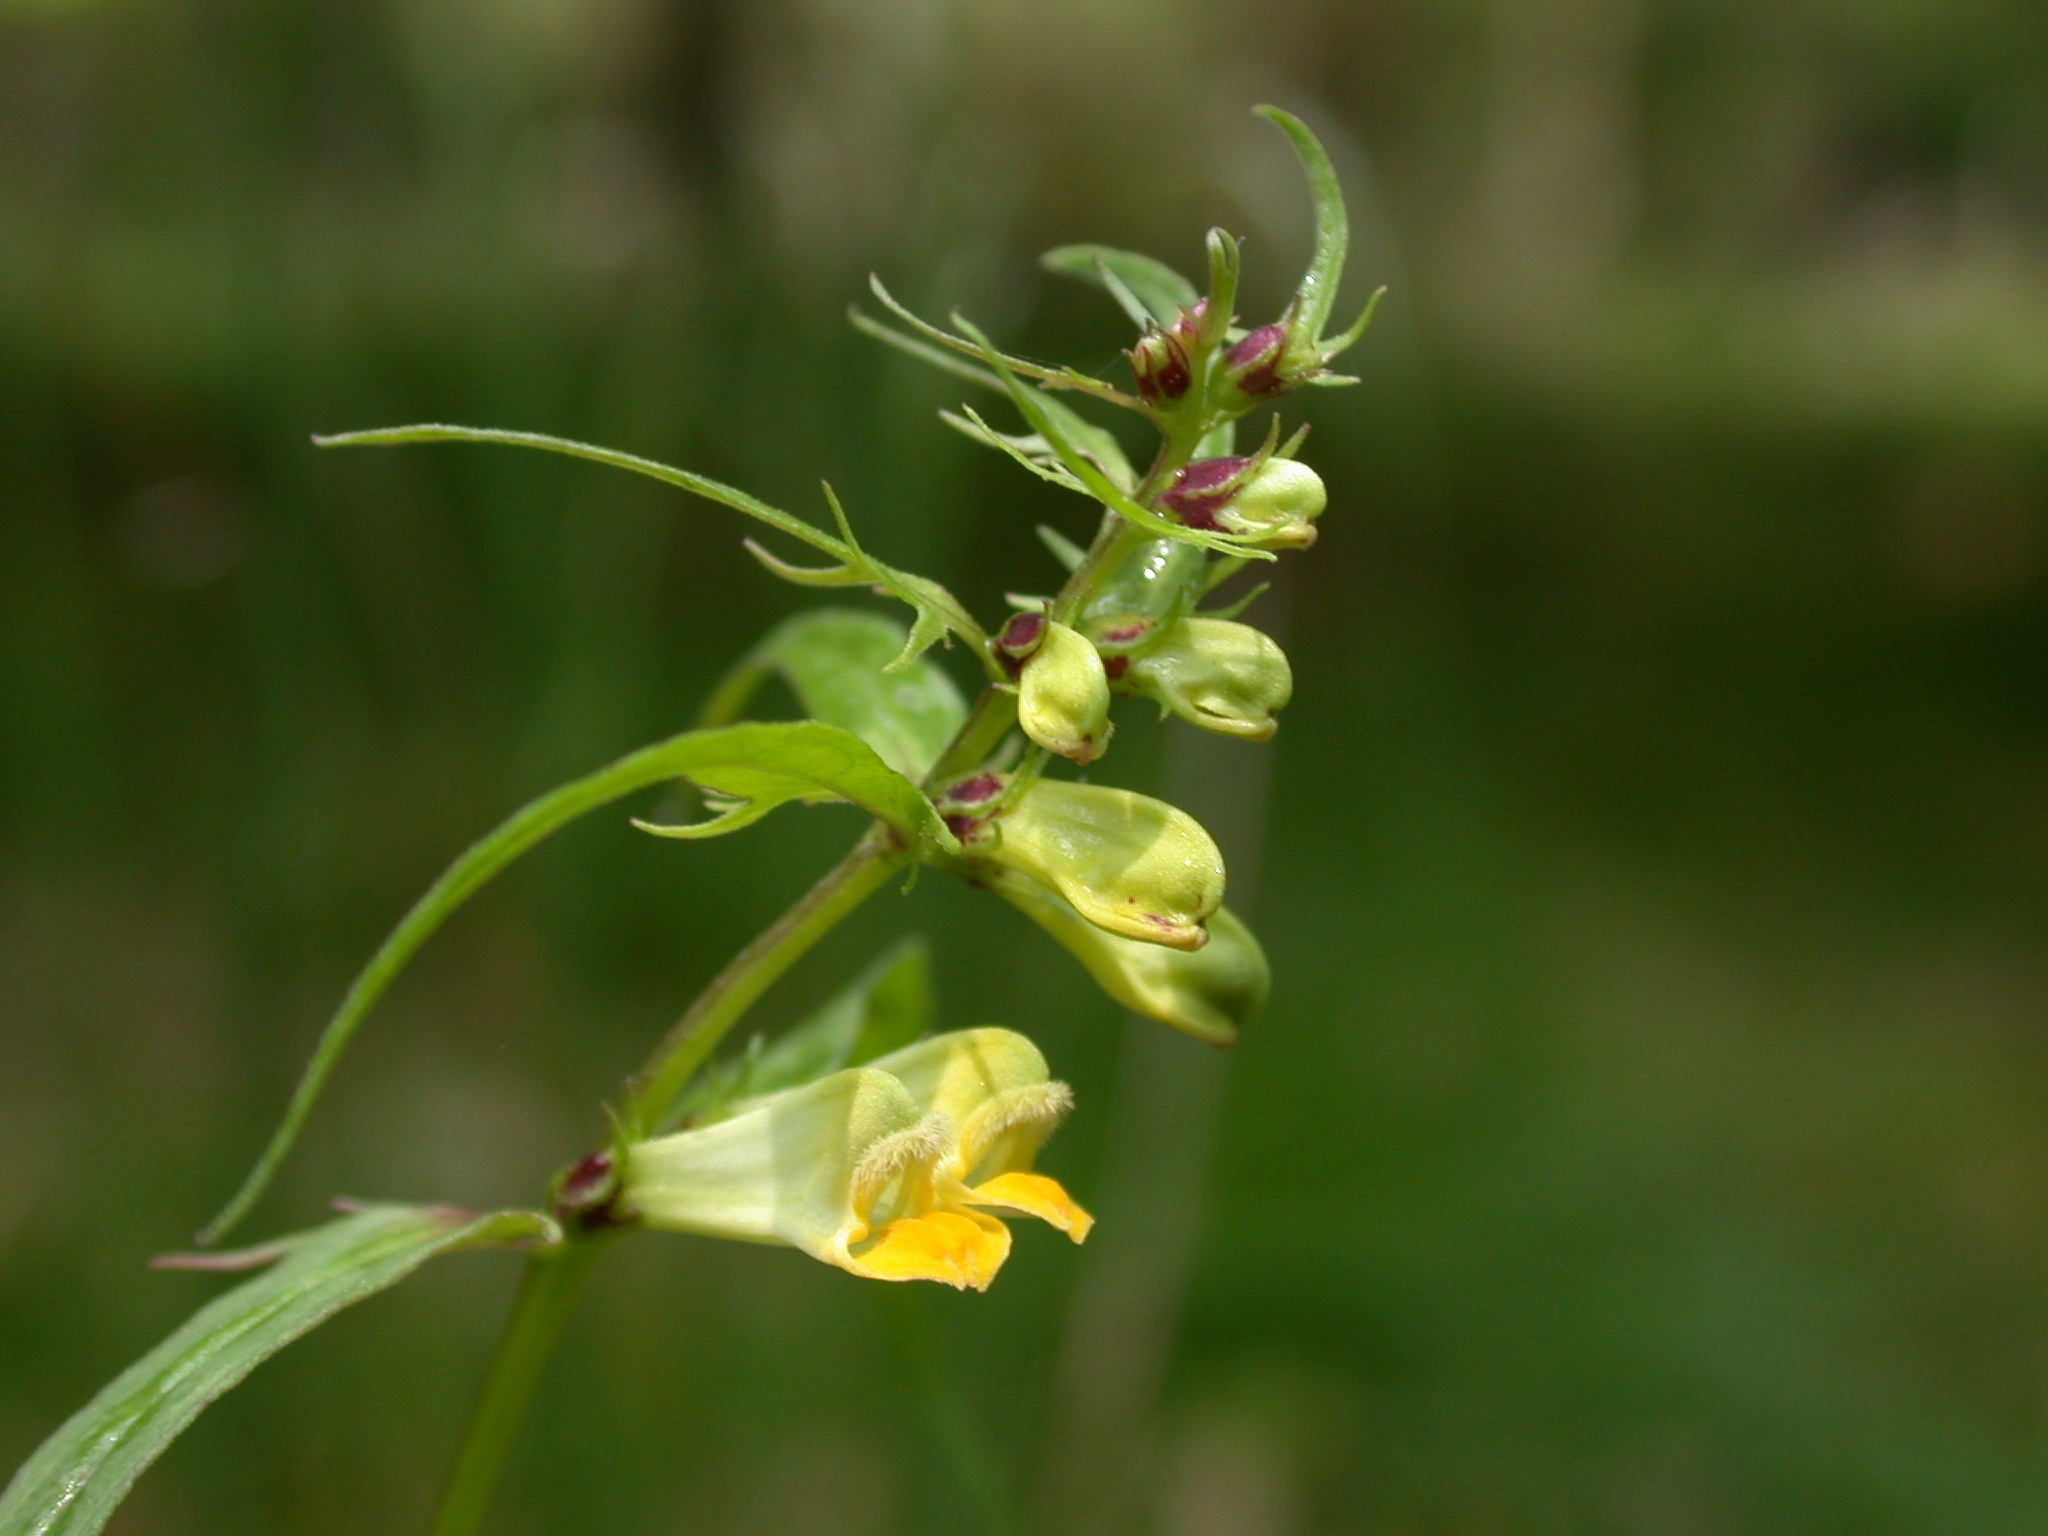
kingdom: Plantae
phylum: Tracheophyta
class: Magnoliopsida
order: Lamiales
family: Orobanchaceae
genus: Melampyrum
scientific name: Melampyrum pratense
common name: Common cow-wheat
